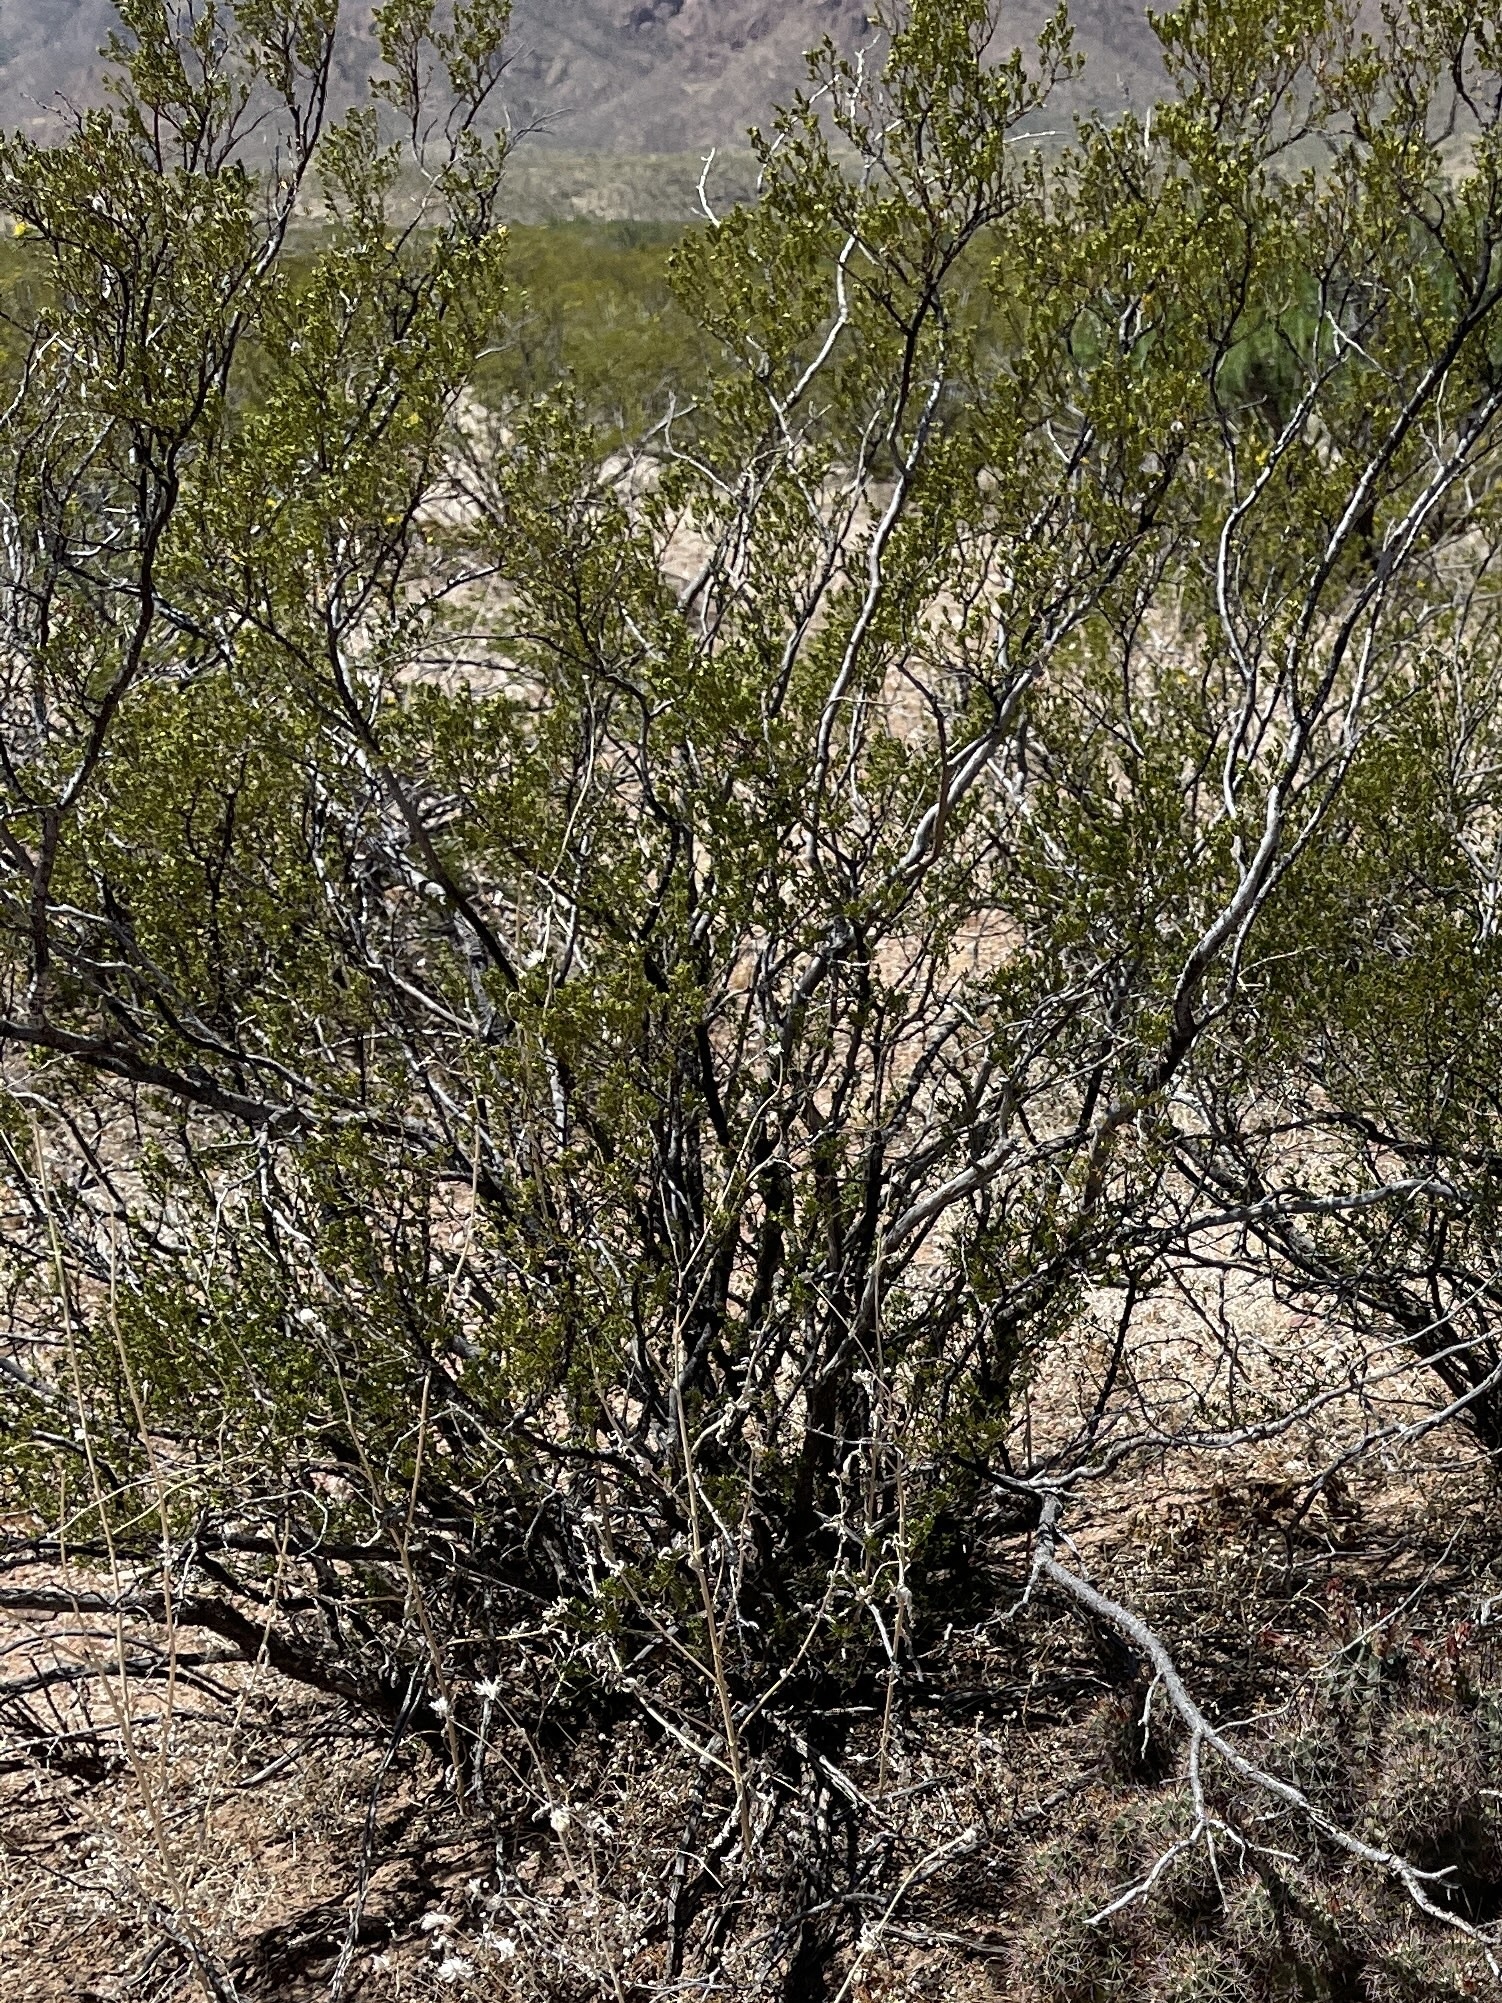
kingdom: Plantae
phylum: Tracheophyta
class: Magnoliopsida
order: Zygophyllales
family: Zygophyllaceae
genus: Larrea
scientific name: Larrea tridentata
